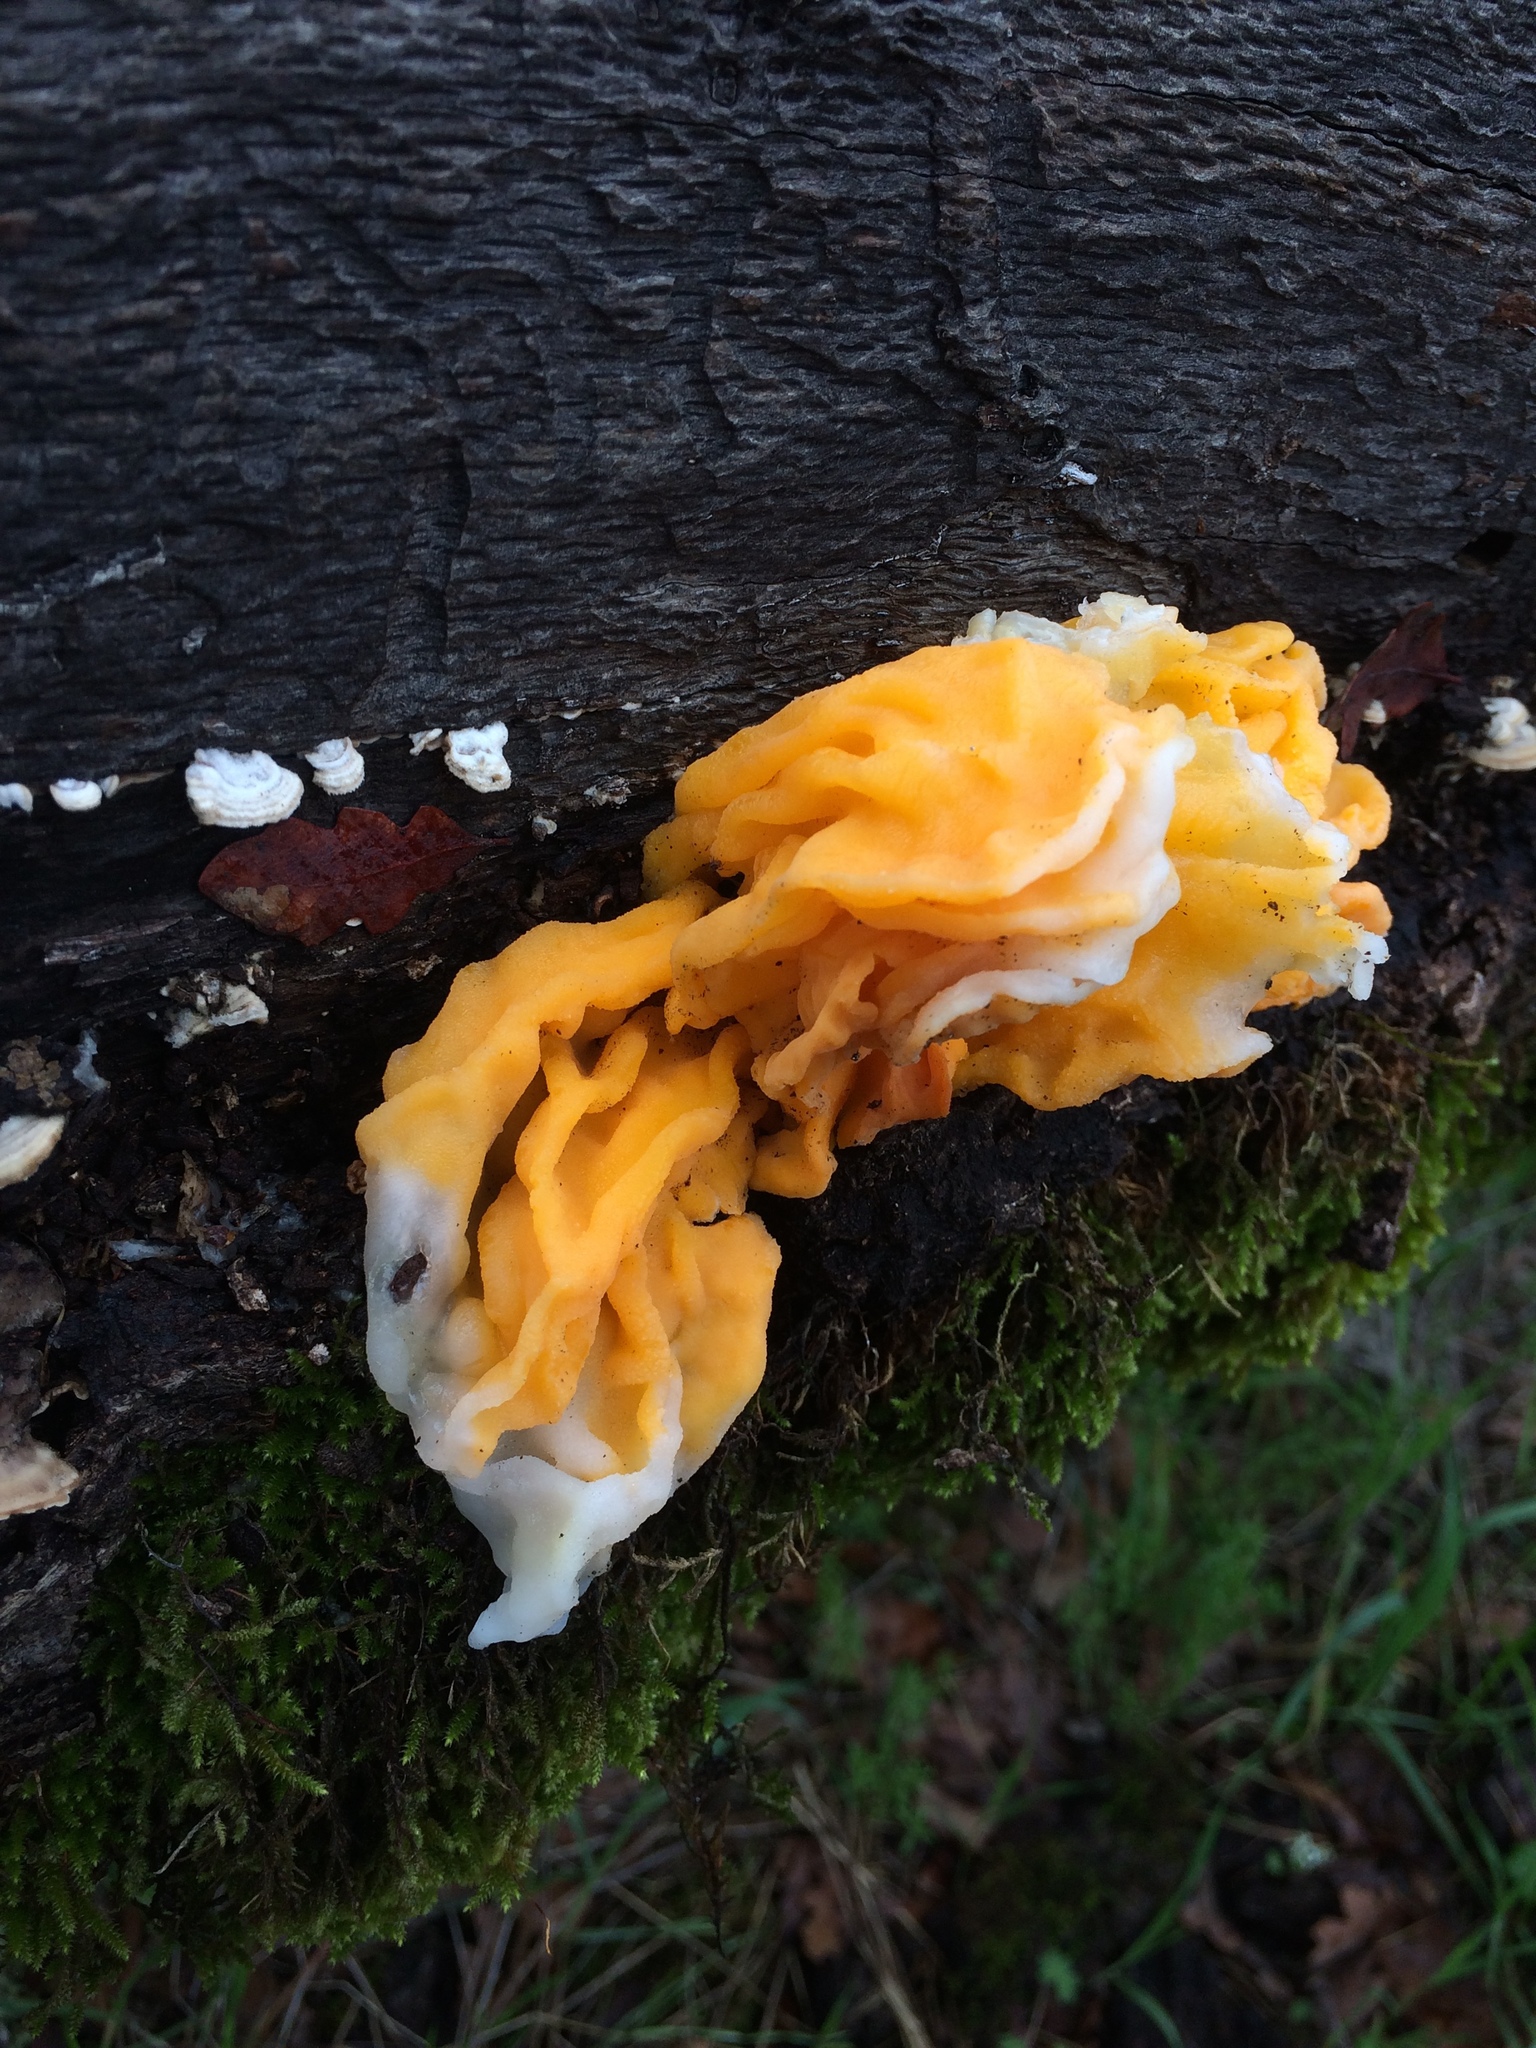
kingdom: Fungi
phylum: Basidiomycota
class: Tremellomycetes
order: Tremellales
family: Tremellaceae
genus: Tremella
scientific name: Tremella mesenterica
